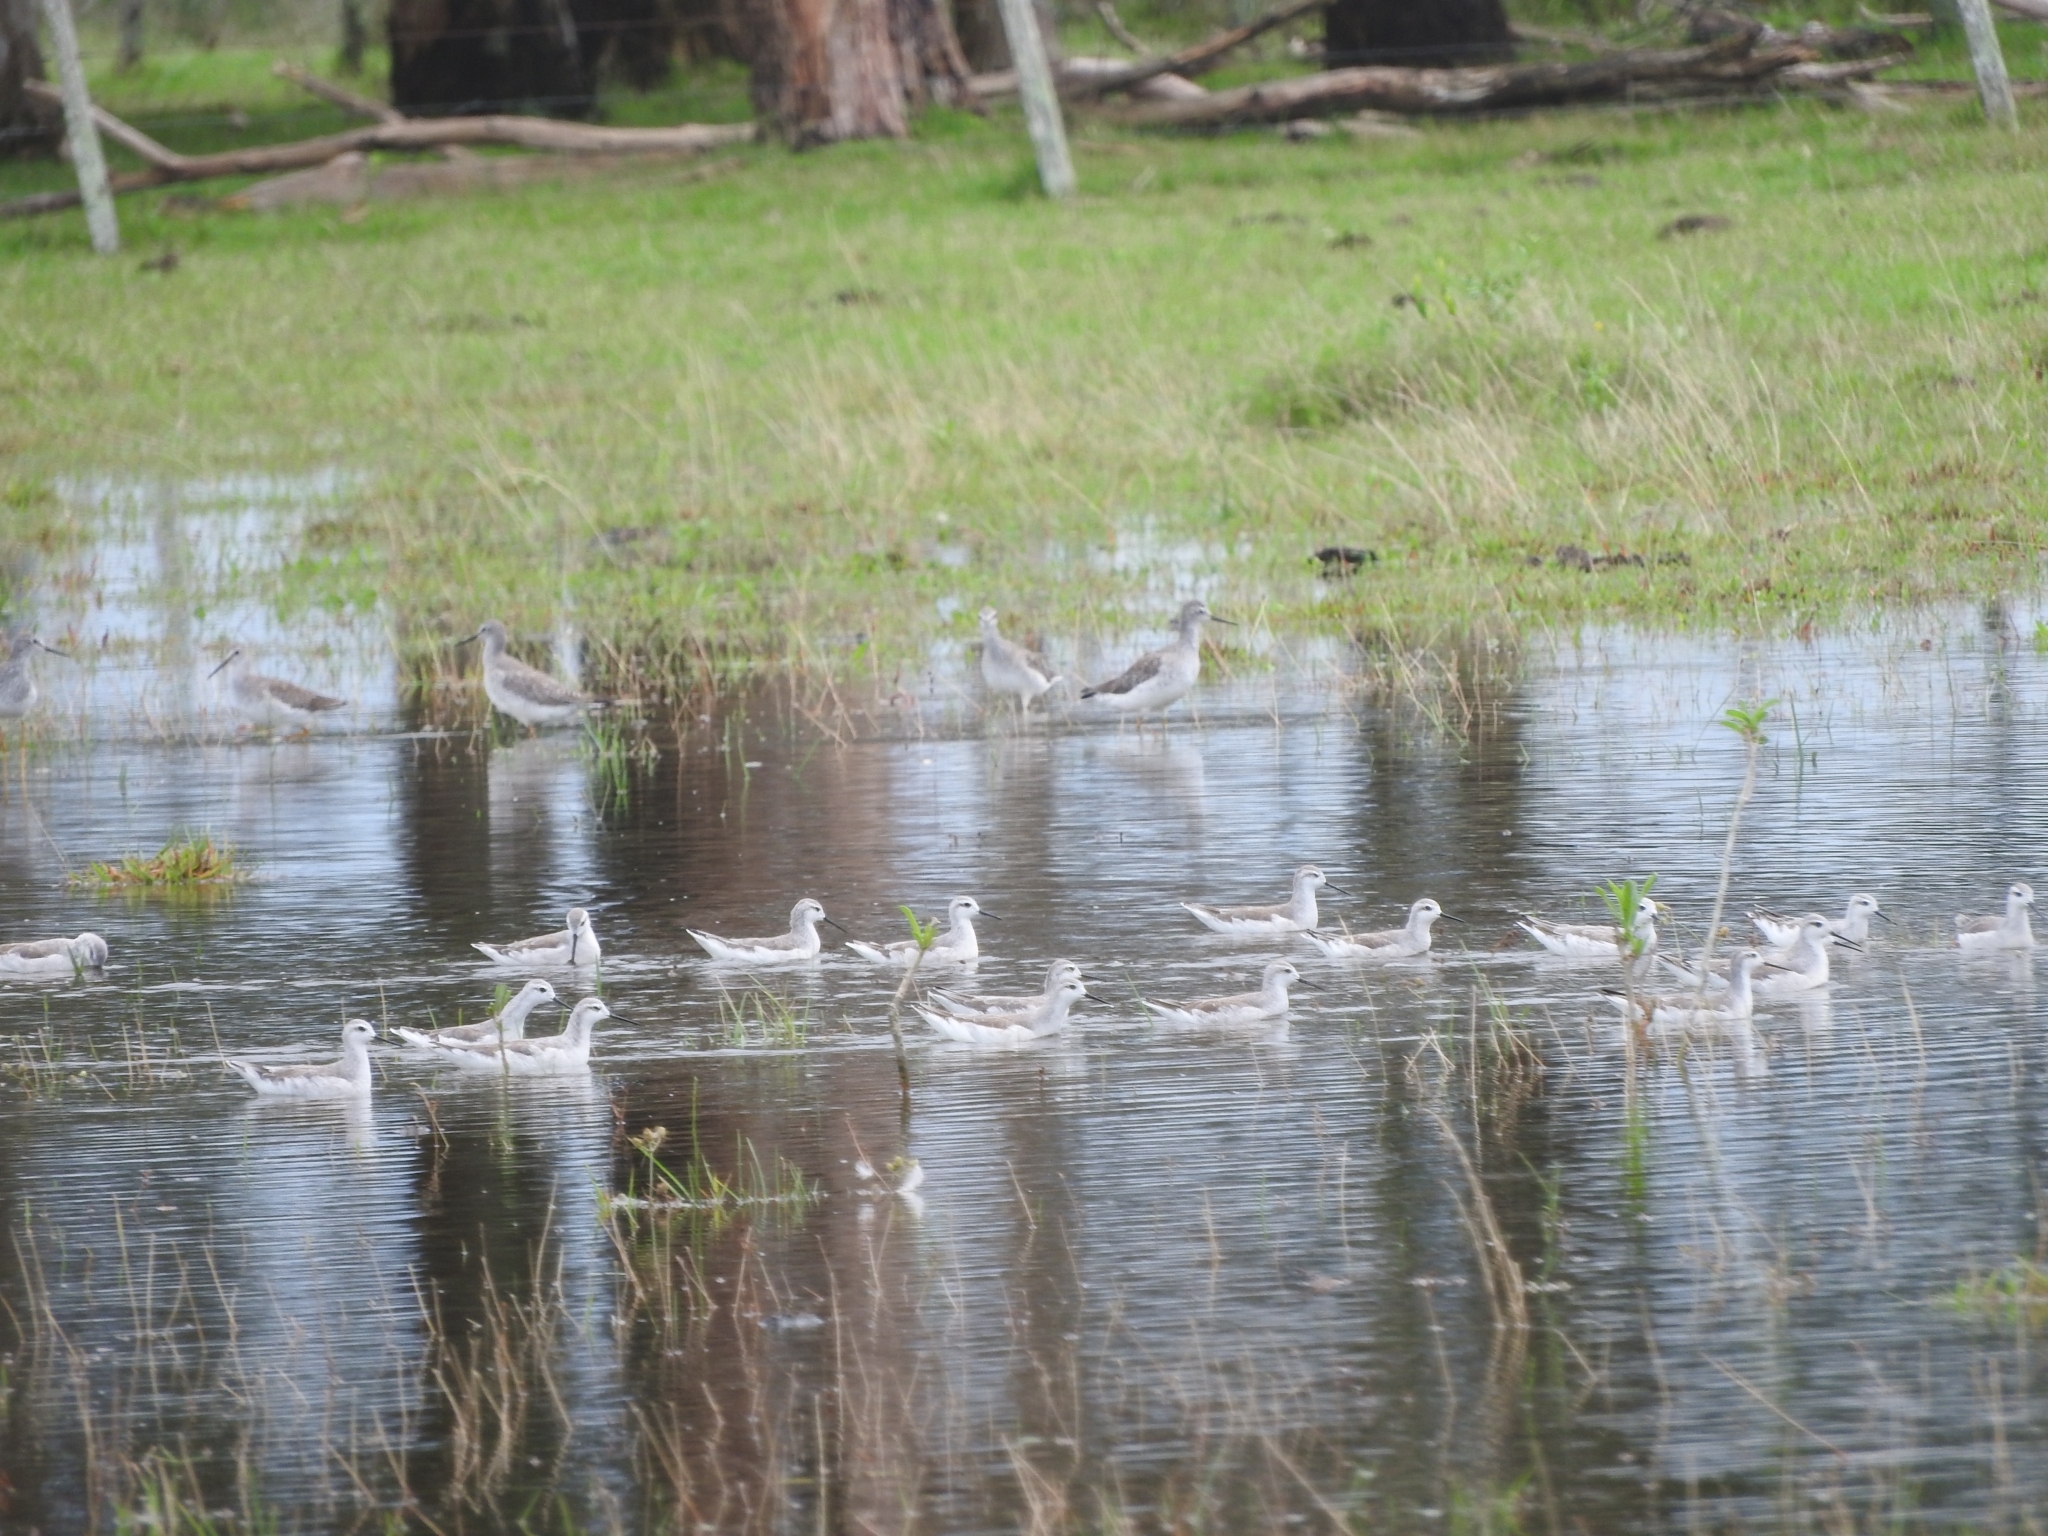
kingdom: Animalia
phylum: Chordata
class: Aves
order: Charadriiformes
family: Scolopacidae
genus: Phalaropus
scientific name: Phalaropus tricolor
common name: Wilson's phalarope
